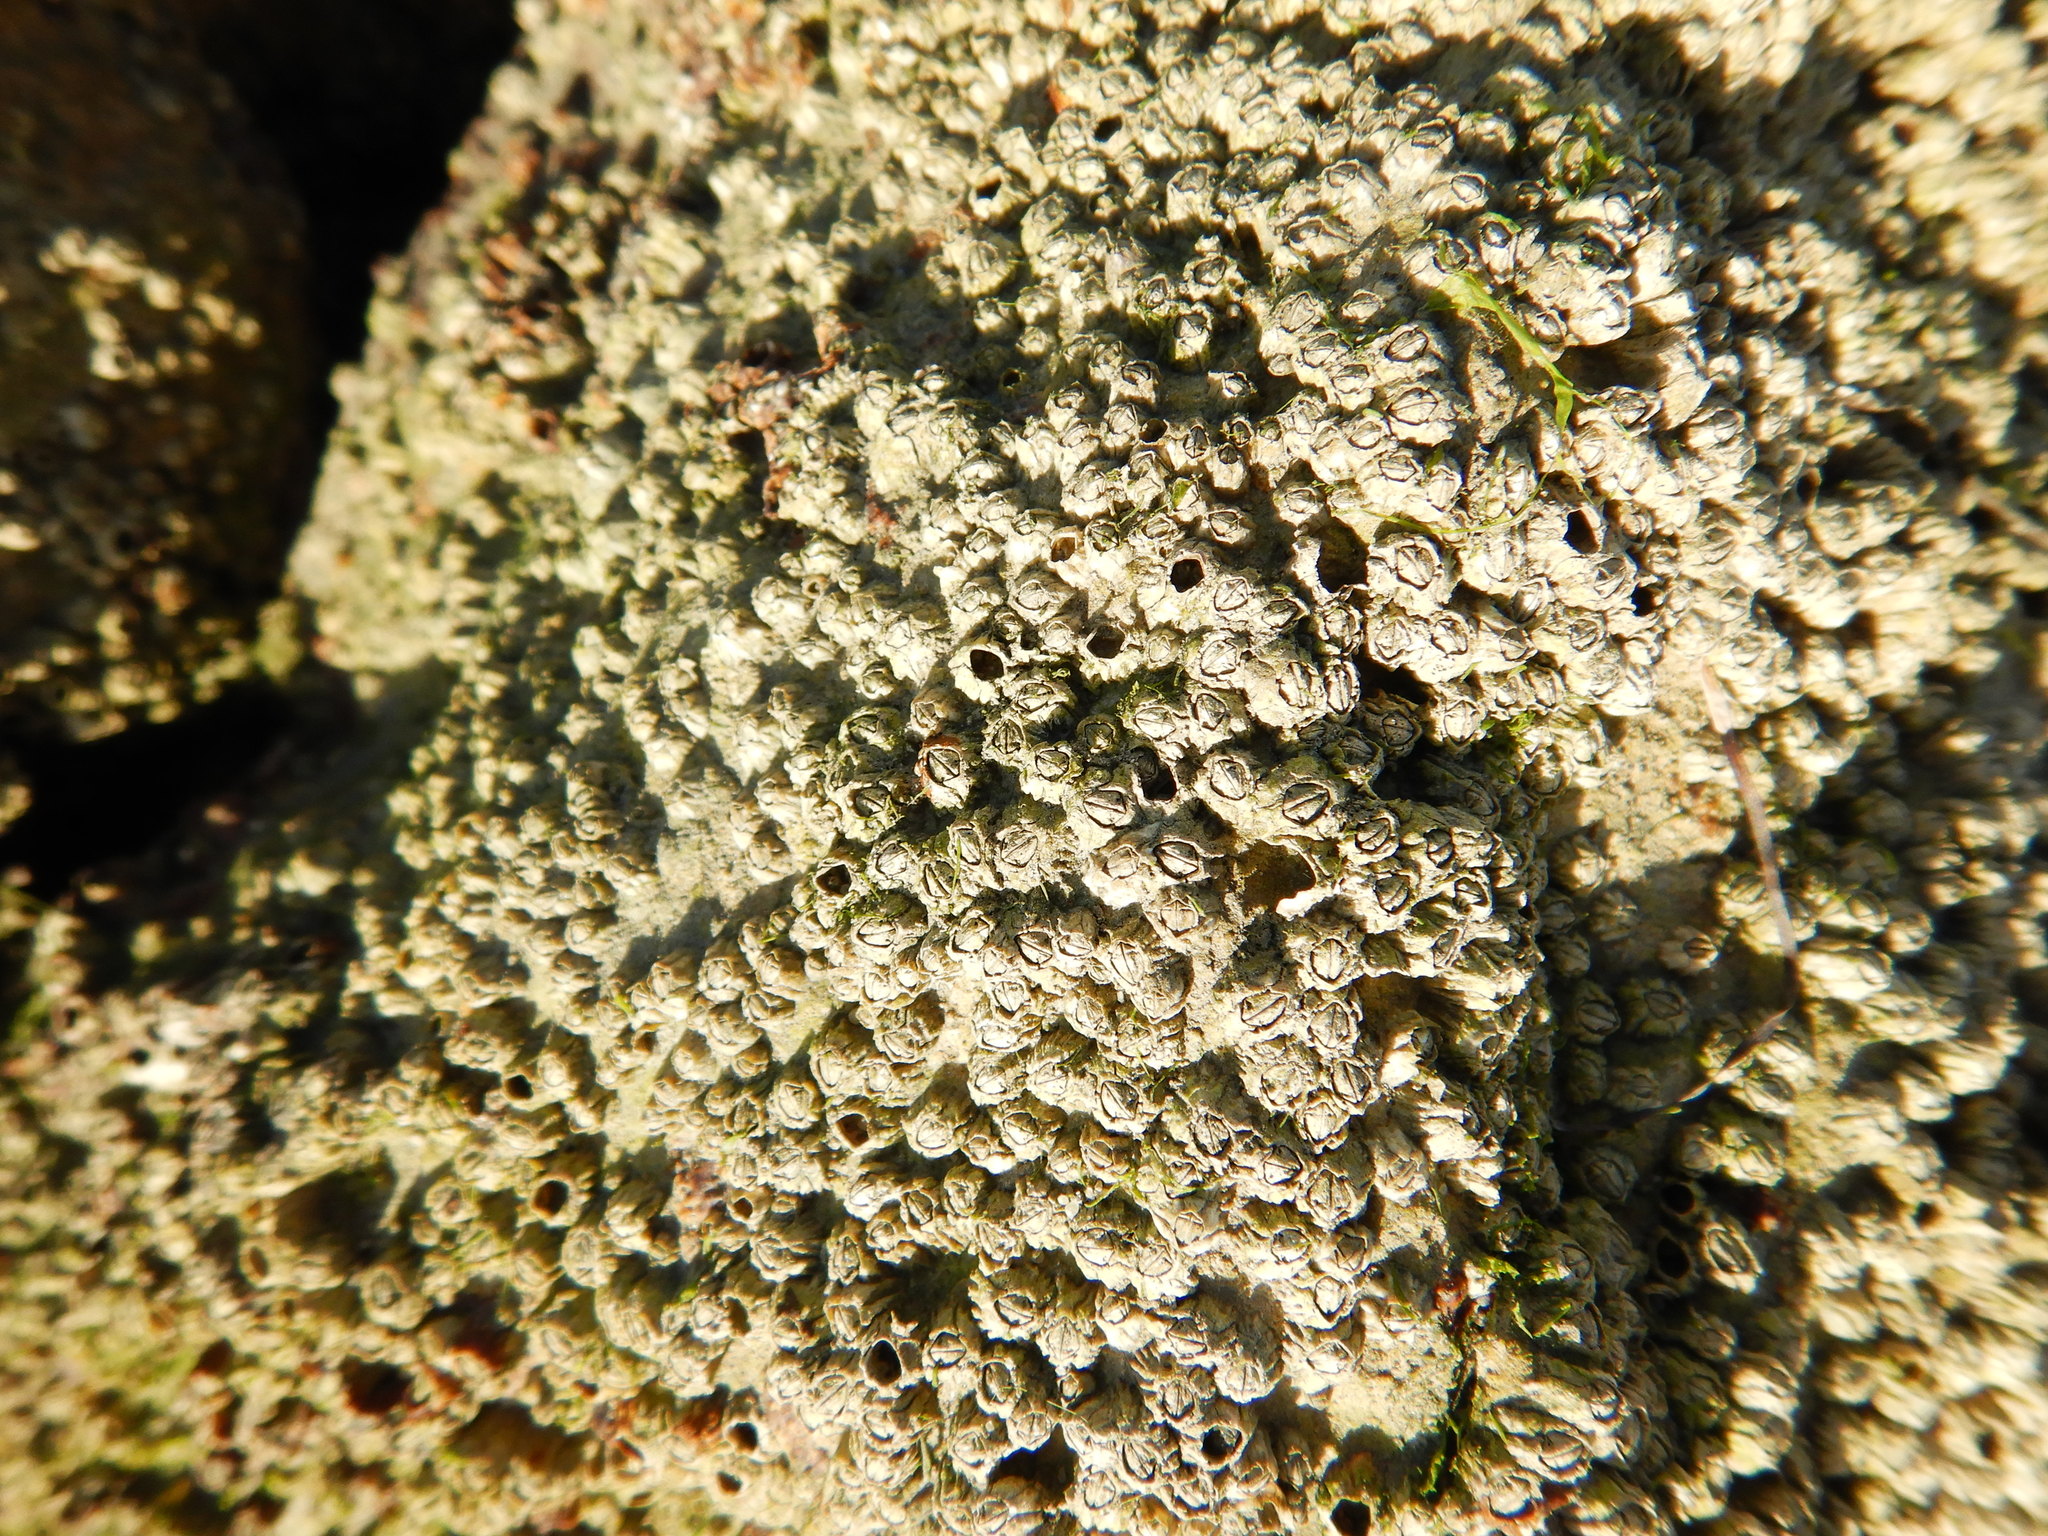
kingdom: Animalia
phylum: Arthropoda
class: Maxillopoda
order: Sessilia
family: Chthamalidae
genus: Chthamalus
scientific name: Chthamalus montagui
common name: Montagu's stellate barnacle
